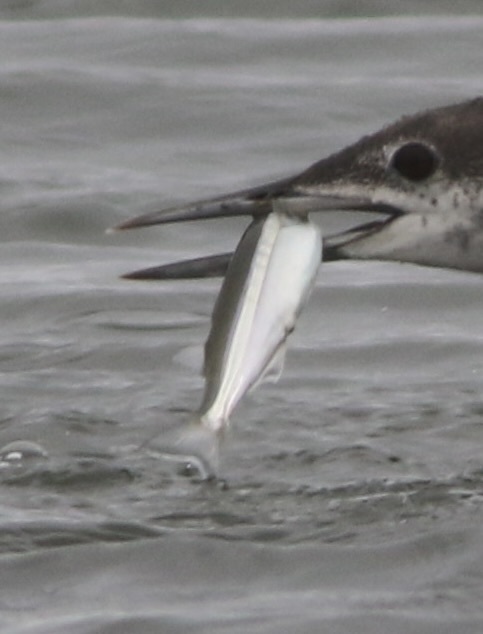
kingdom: Animalia
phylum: Chordata
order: Atheriniformes
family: Atherinopsidae
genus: Atherinops
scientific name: Atherinops affinis
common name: Topsmelt
